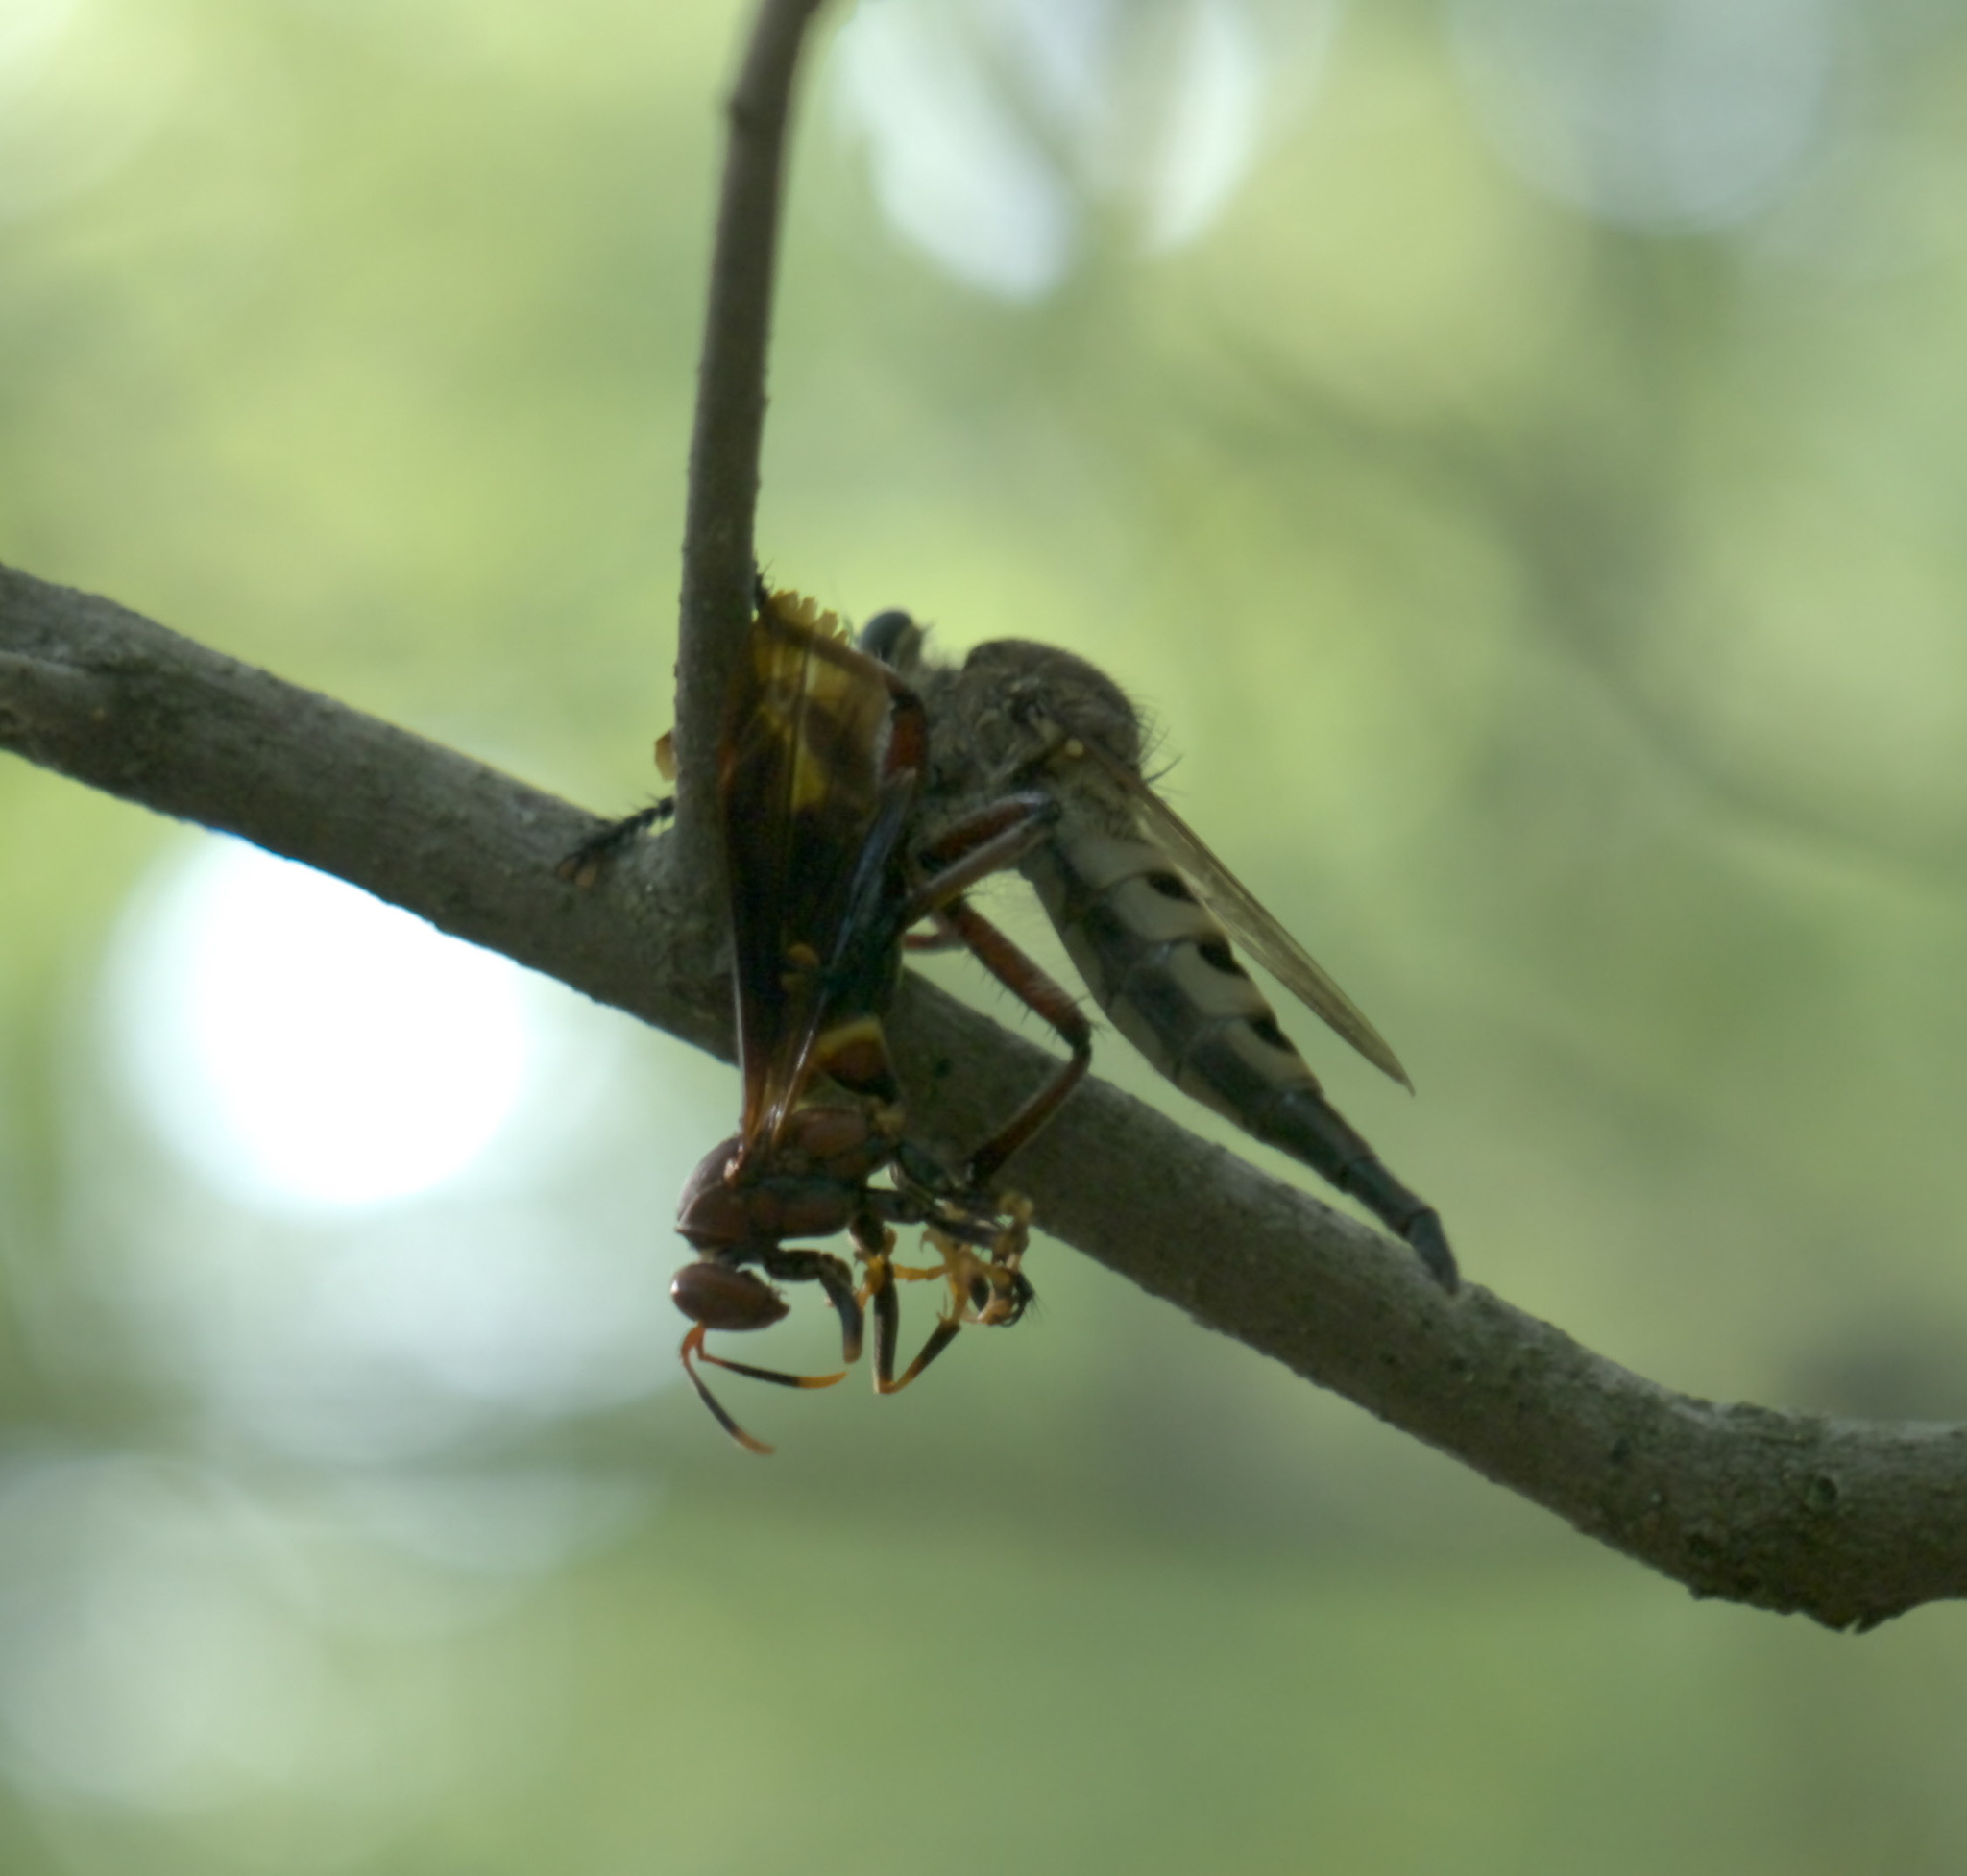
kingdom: Animalia
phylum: Arthropoda
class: Insecta
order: Diptera
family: Asilidae
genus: Promachus
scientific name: Promachus hinei
